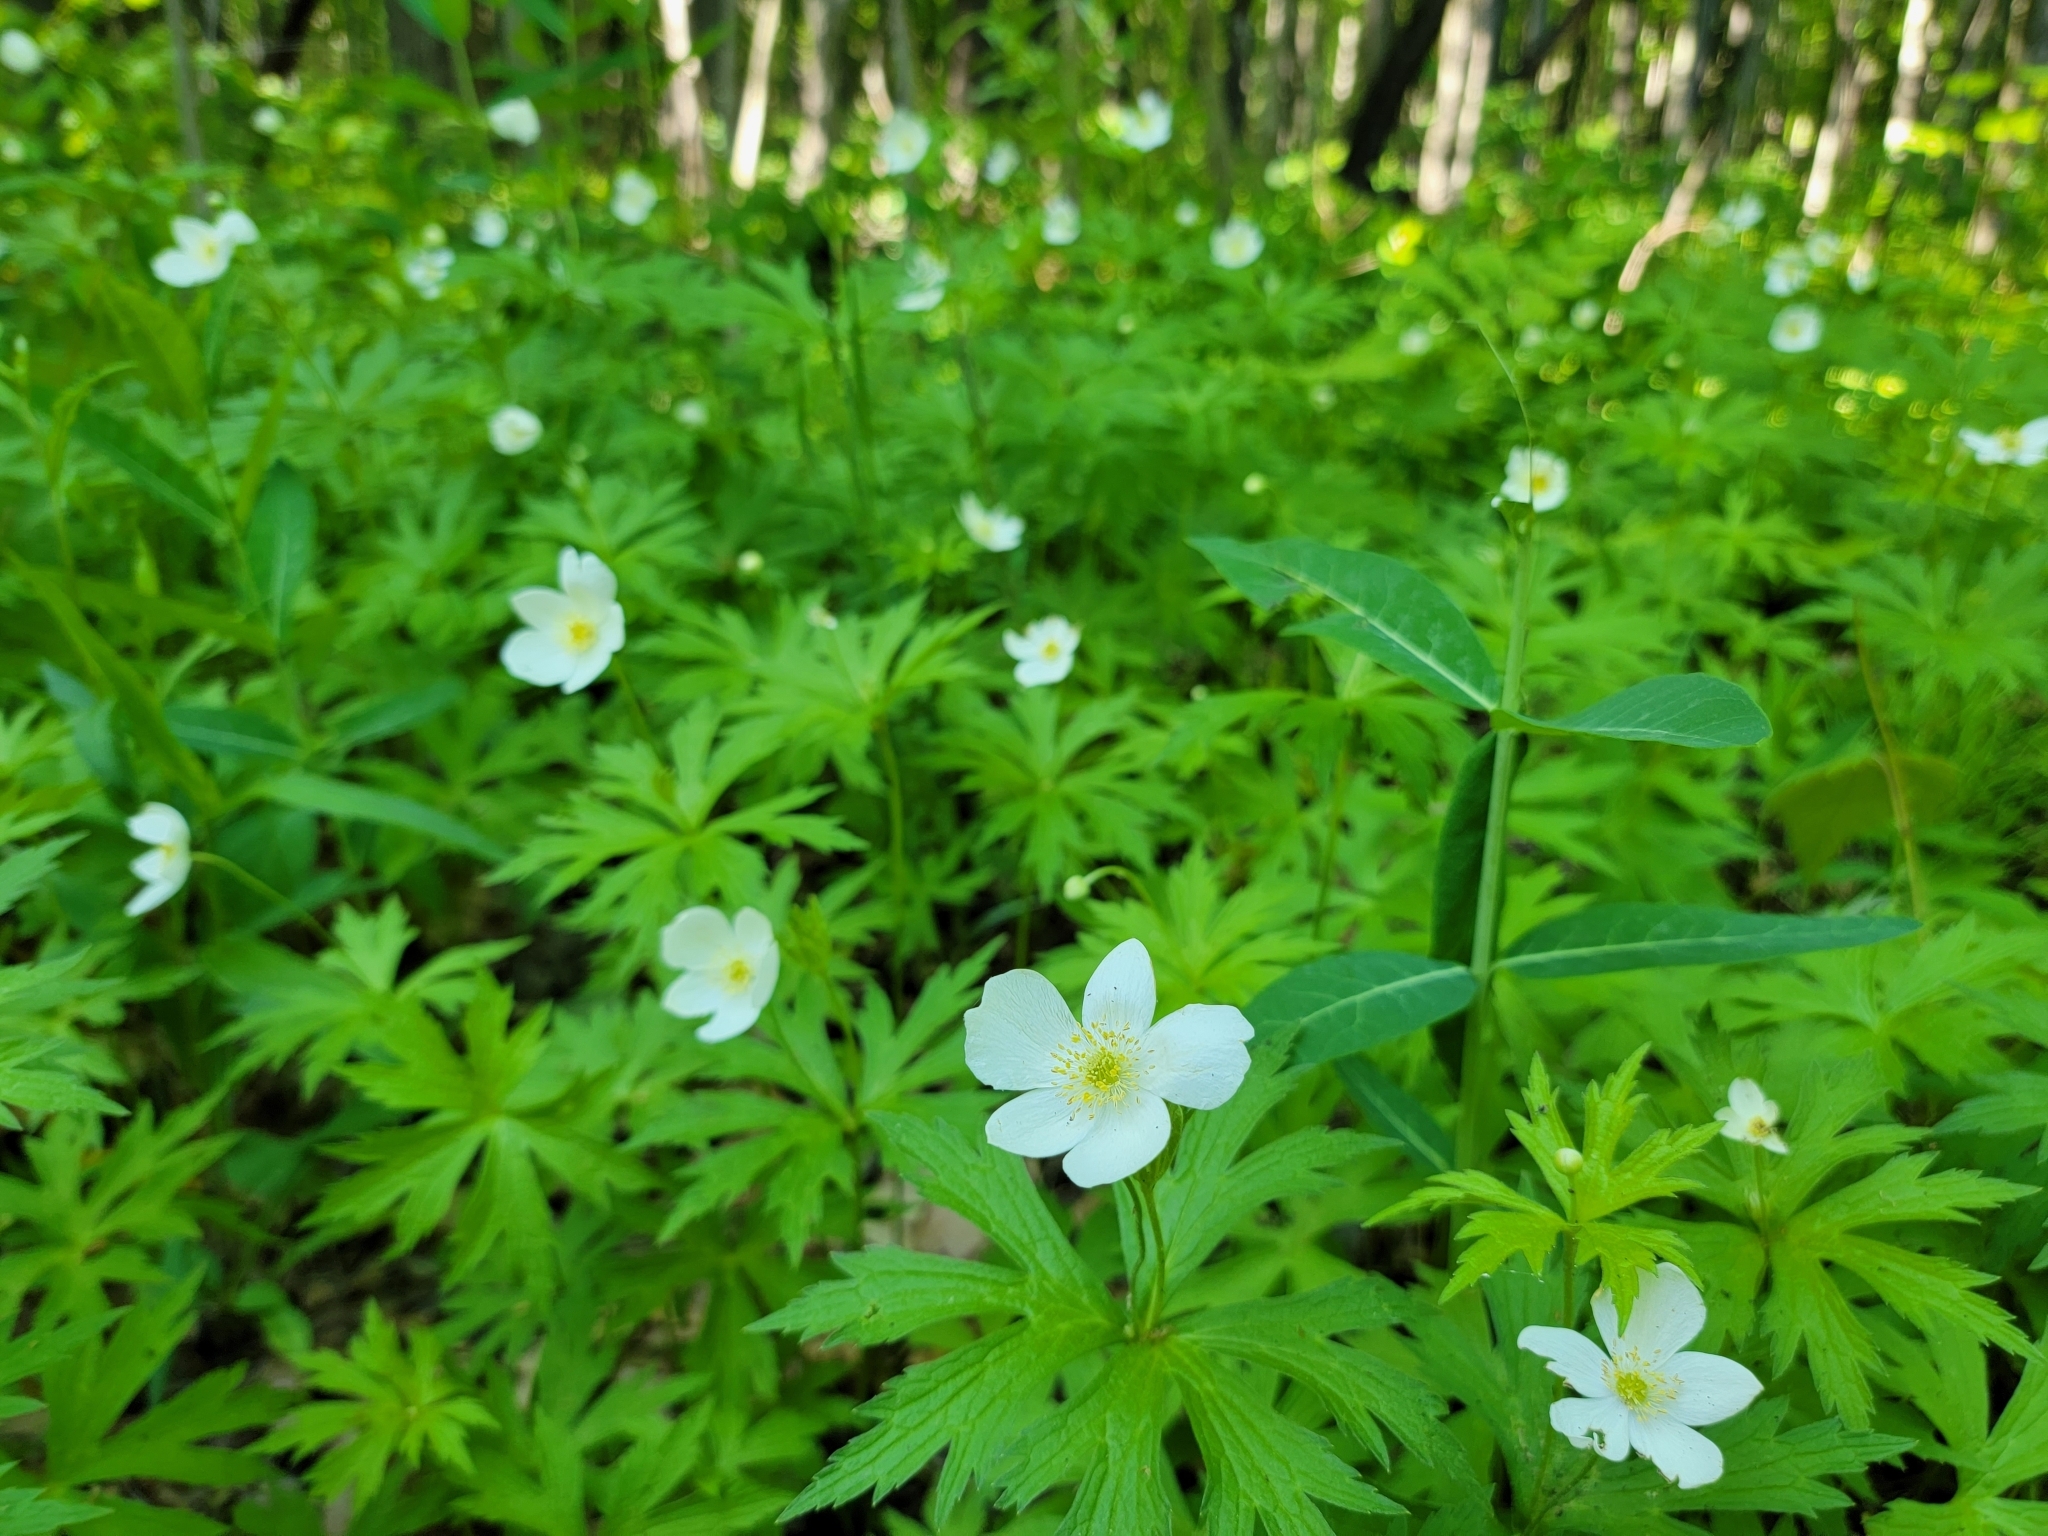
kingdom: Plantae
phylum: Tracheophyta
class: Magnoliopsida
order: Ranunculales
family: Ranunculaceae
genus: Anemonastrum
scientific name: Anemonastrum canadense
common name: Canada anemone
